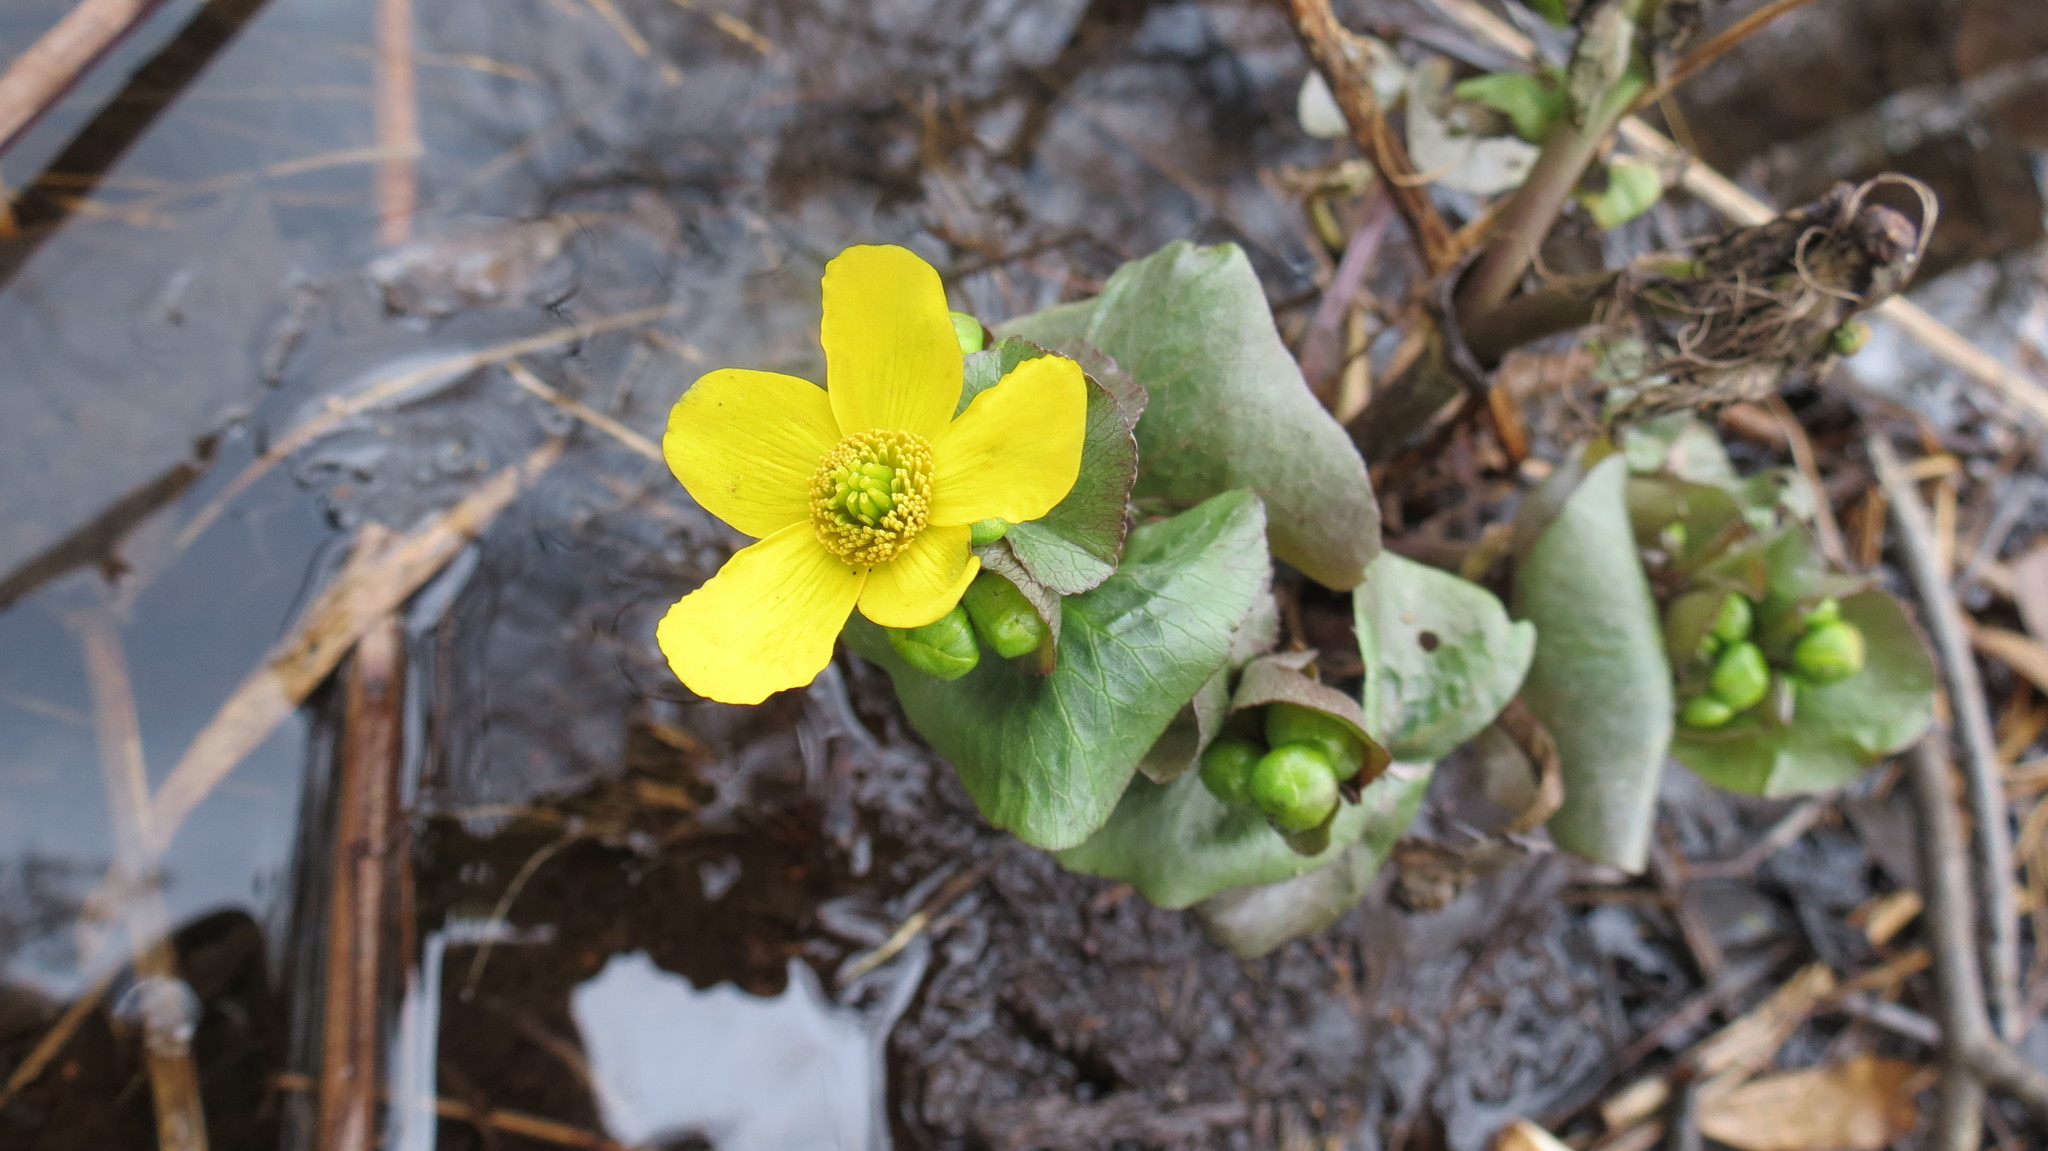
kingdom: Plantae
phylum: Tracheophyta
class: Magnoliopsida
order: Ranunculales
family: Ranunculaceae
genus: Caltha
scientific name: Caltha palustris
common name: Marsh marigold
